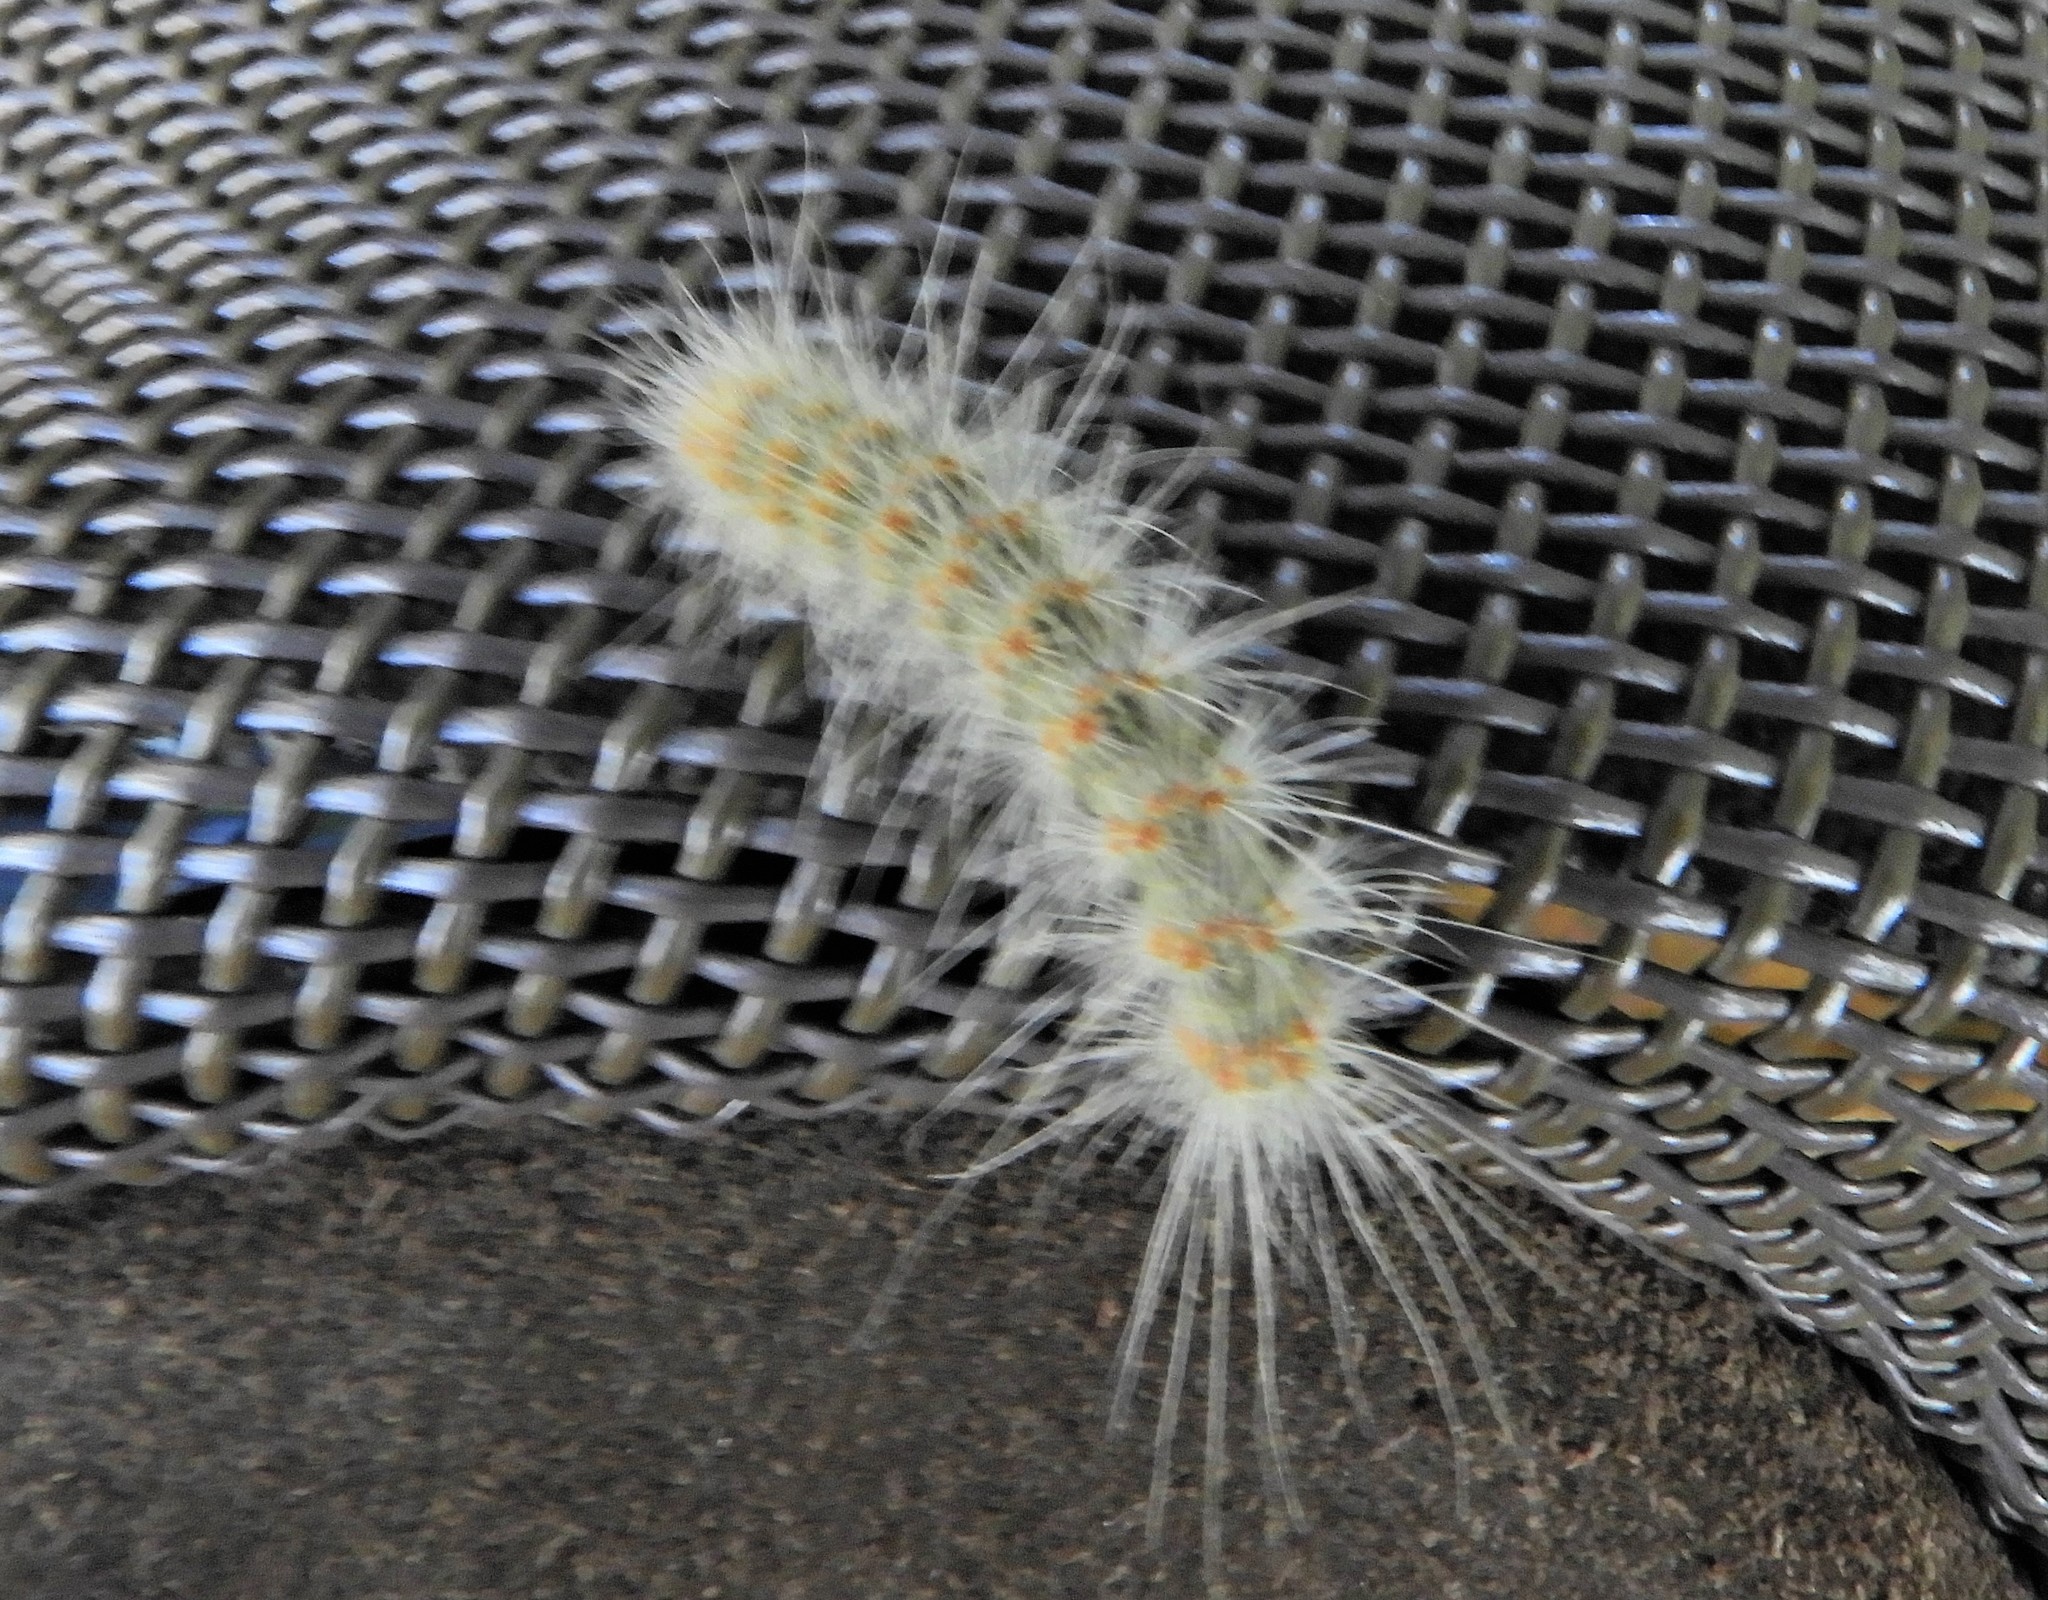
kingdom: Animalia
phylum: Arthropoda
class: Insecta
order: Lepidoptera
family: Erebidae
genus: Hyphantria
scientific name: Hyphantria cunea
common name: American white moth
